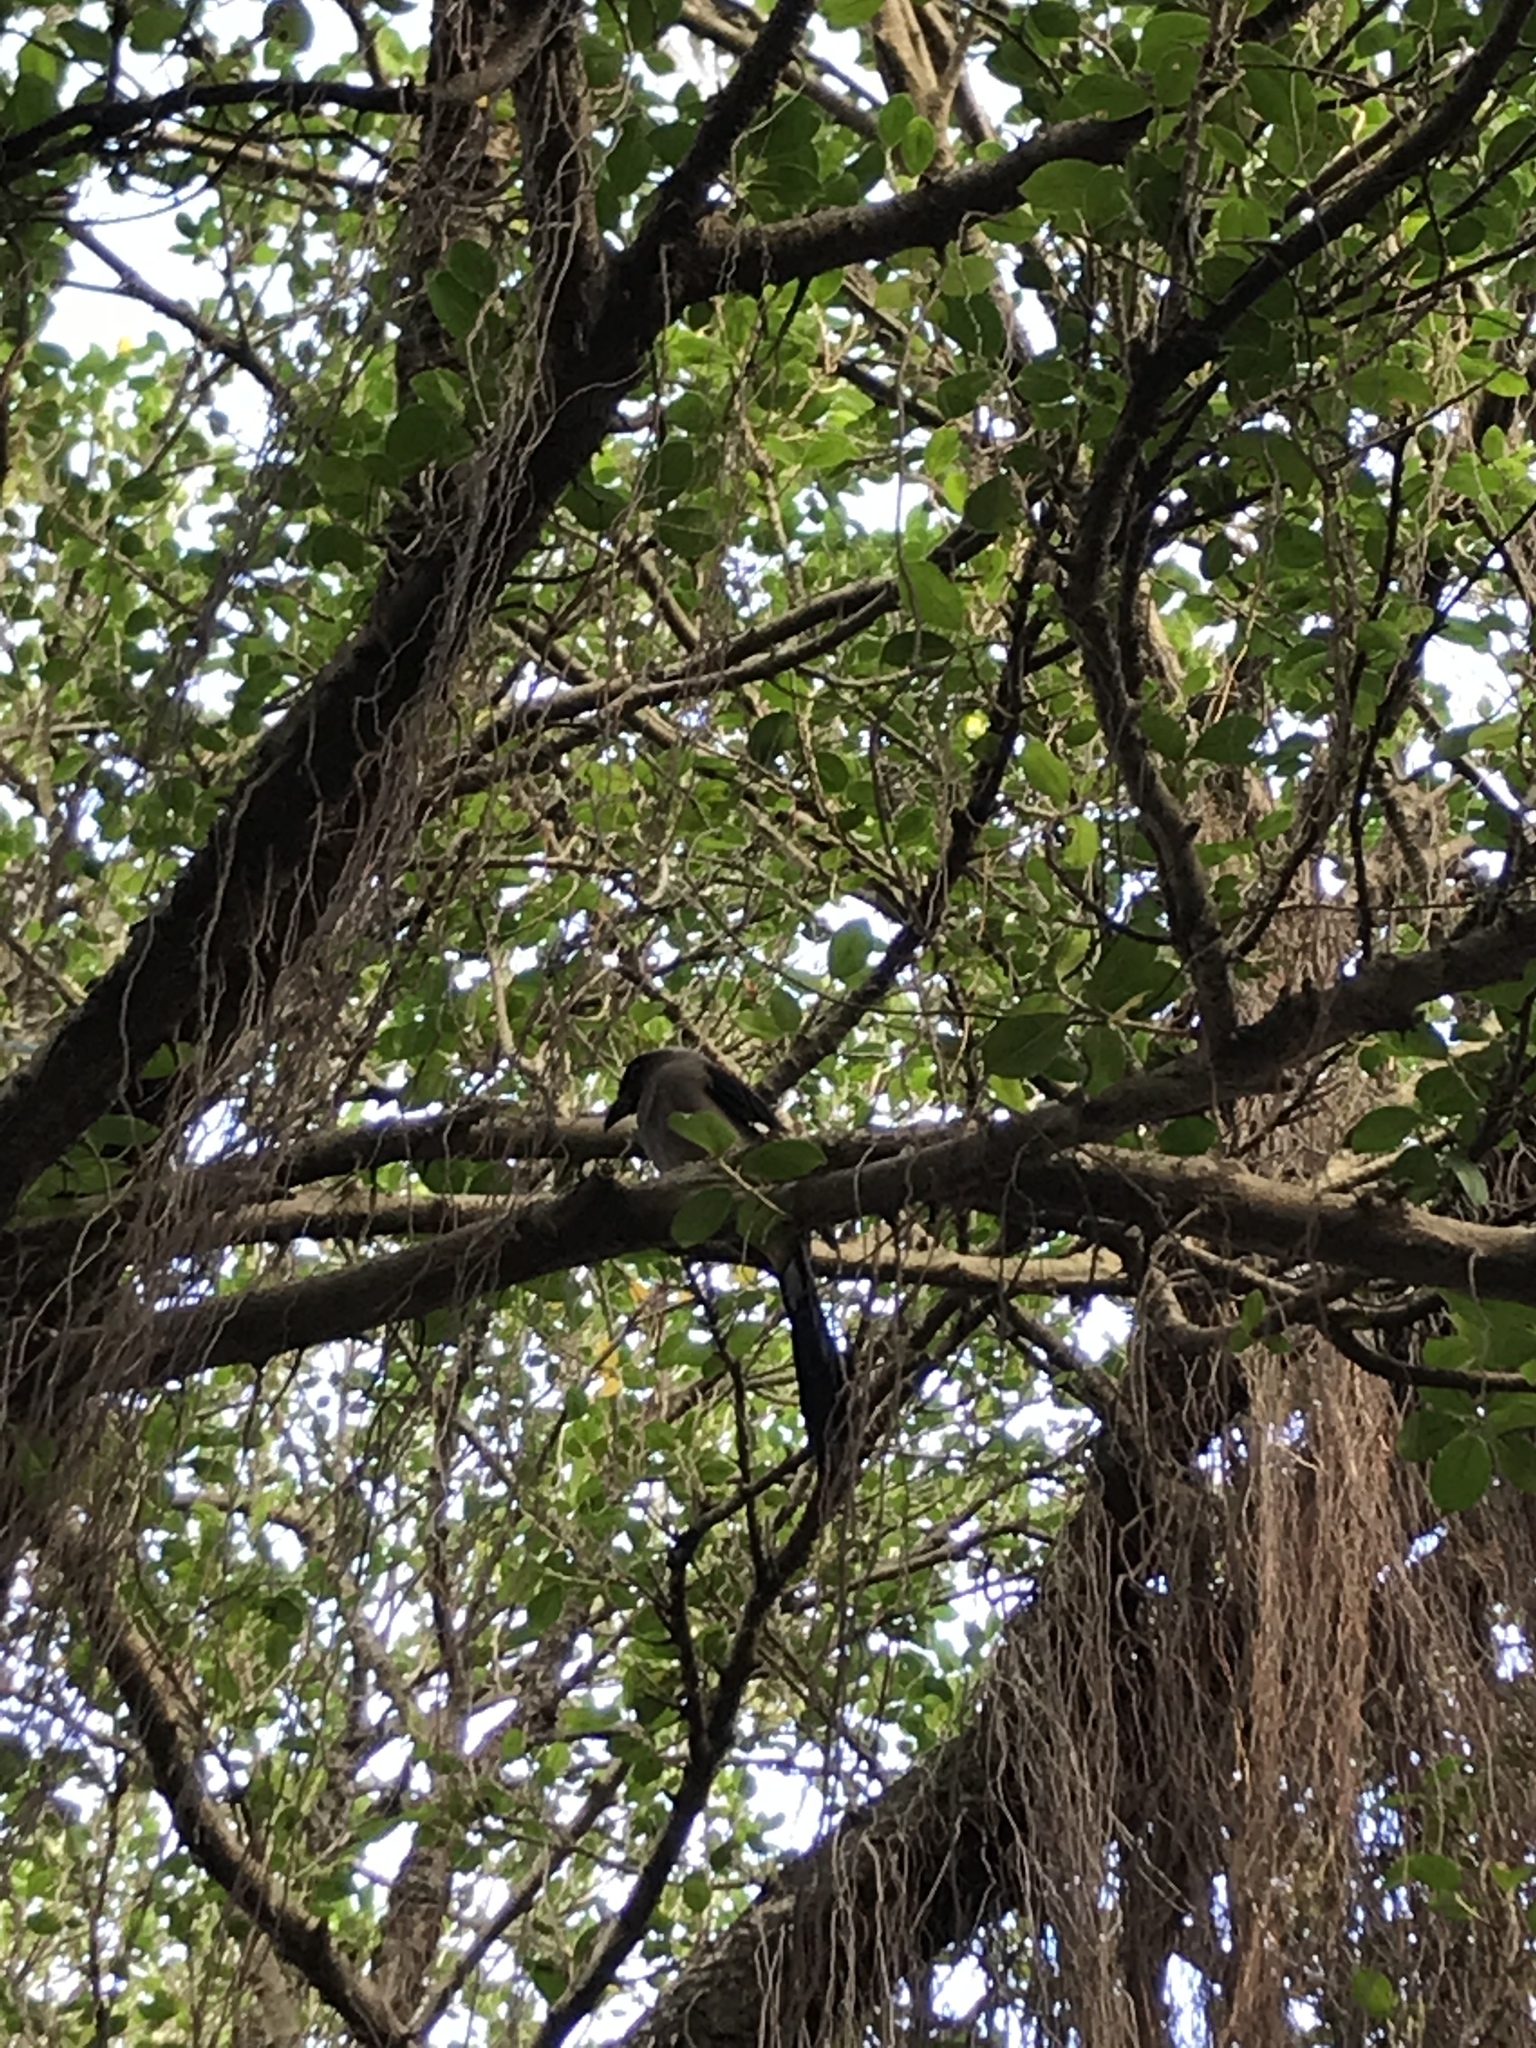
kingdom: Animalia
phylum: Chordata
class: Aves
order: Passeriformes
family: Corvidae
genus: Dendrocitta
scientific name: Dendrocitta formosae
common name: Grey treepie
